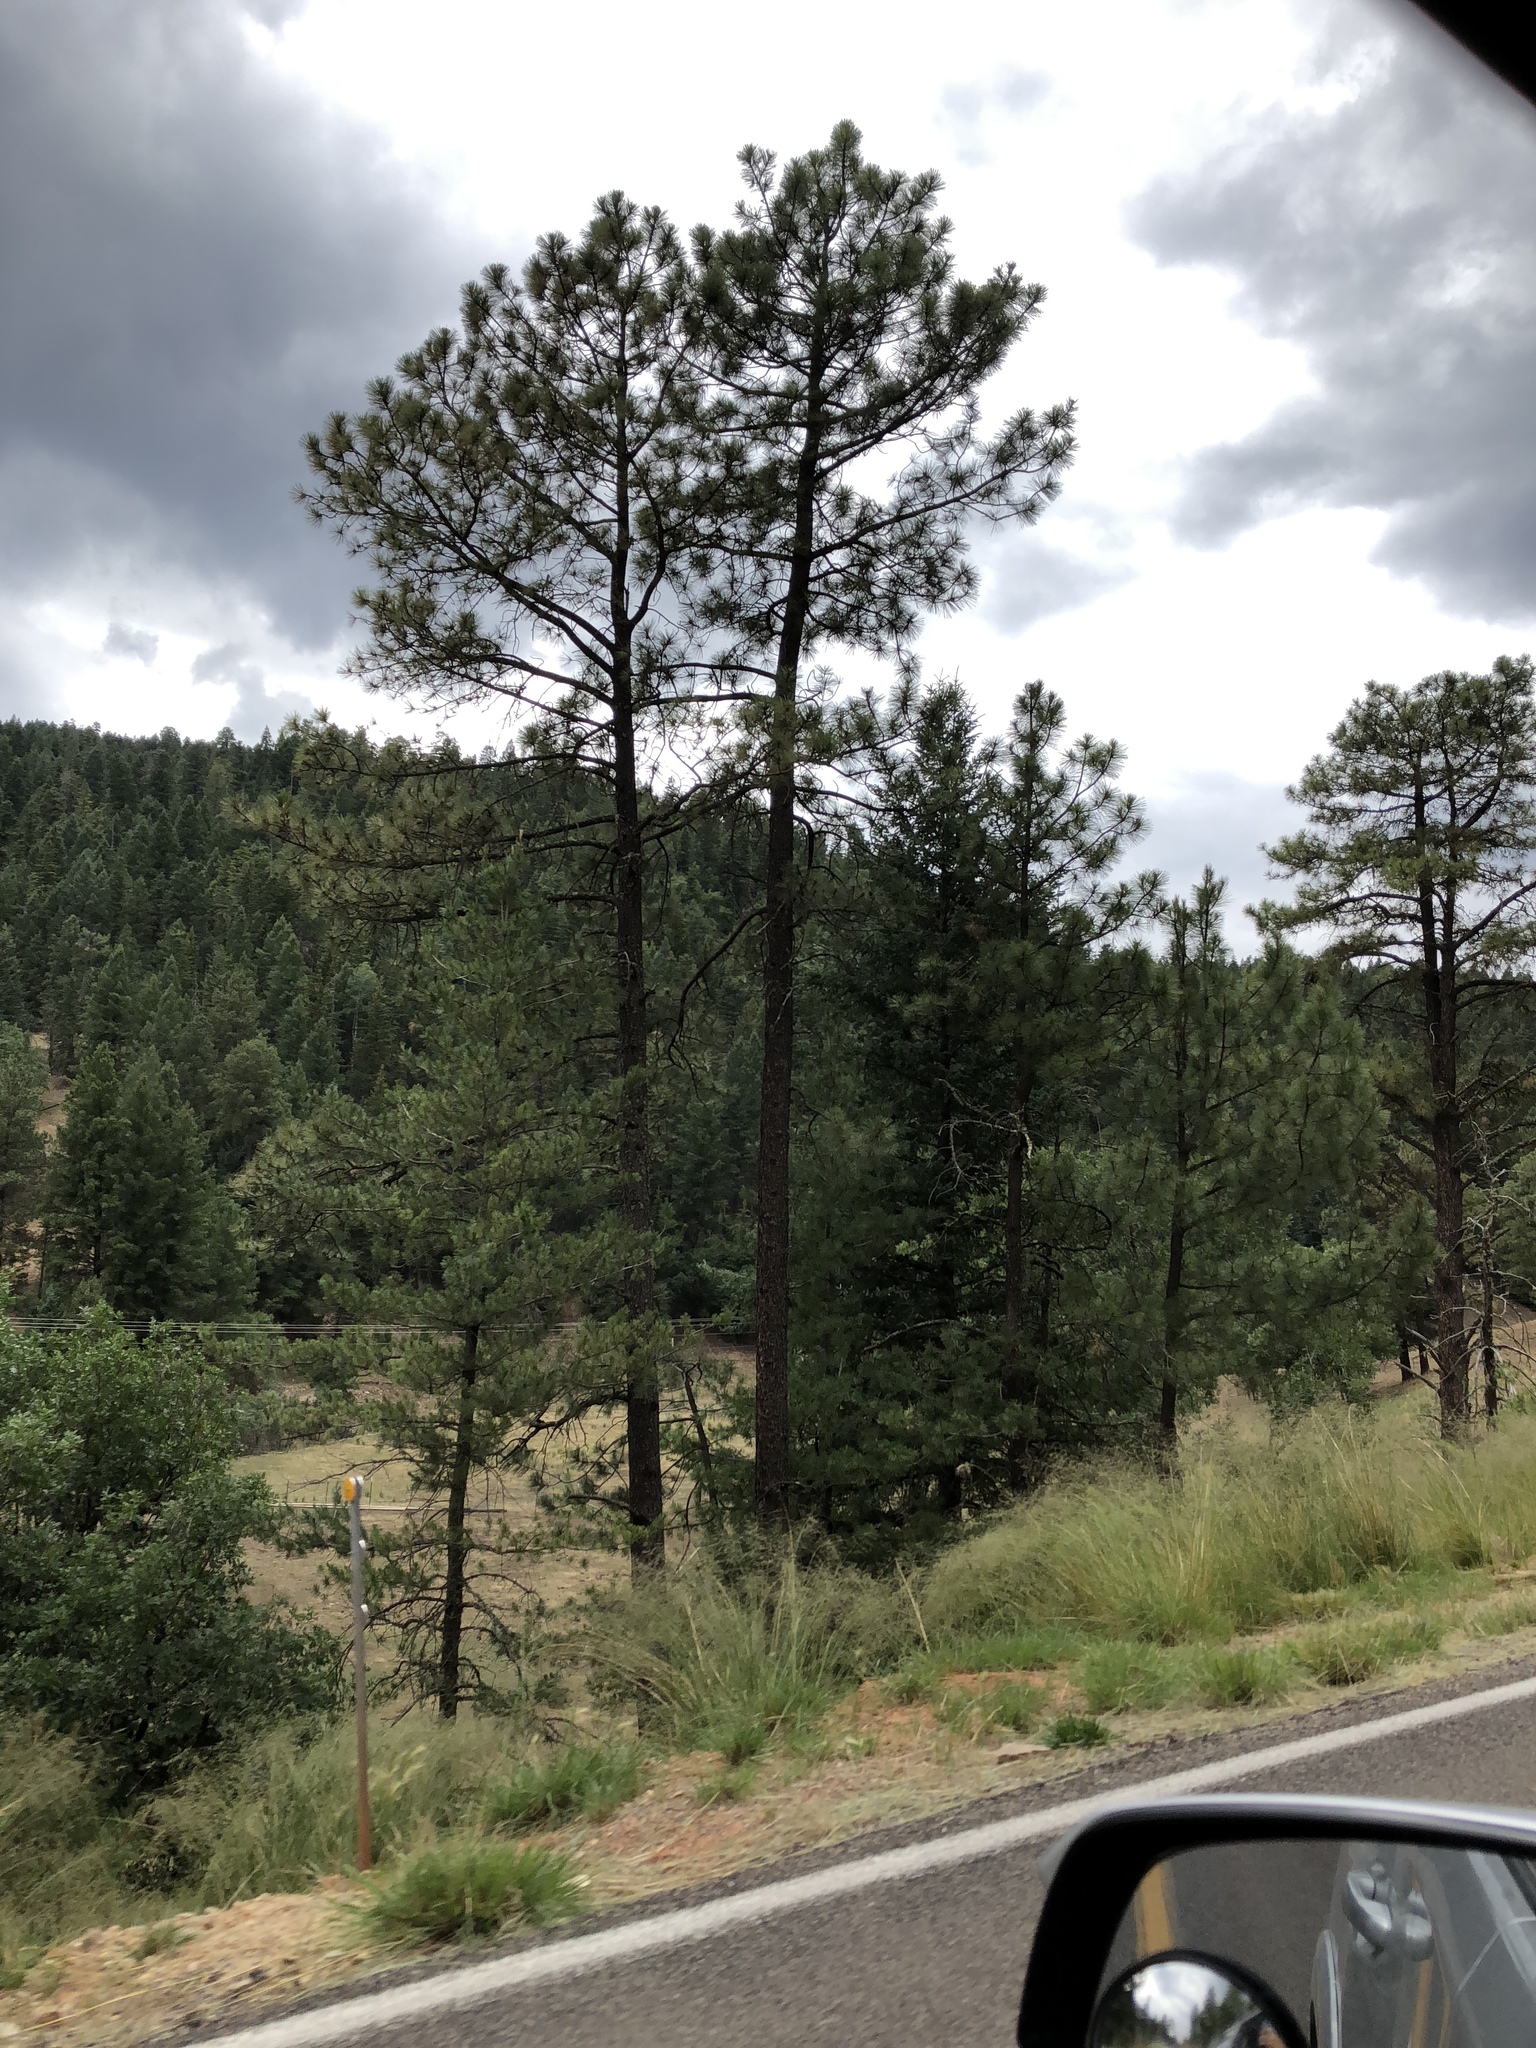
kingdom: Plantae
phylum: Tracheophyta
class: Pinopsida
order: Pinales
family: Pinaceae
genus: Pinus
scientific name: Pinus ponderosa
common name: Western yellow-pine
